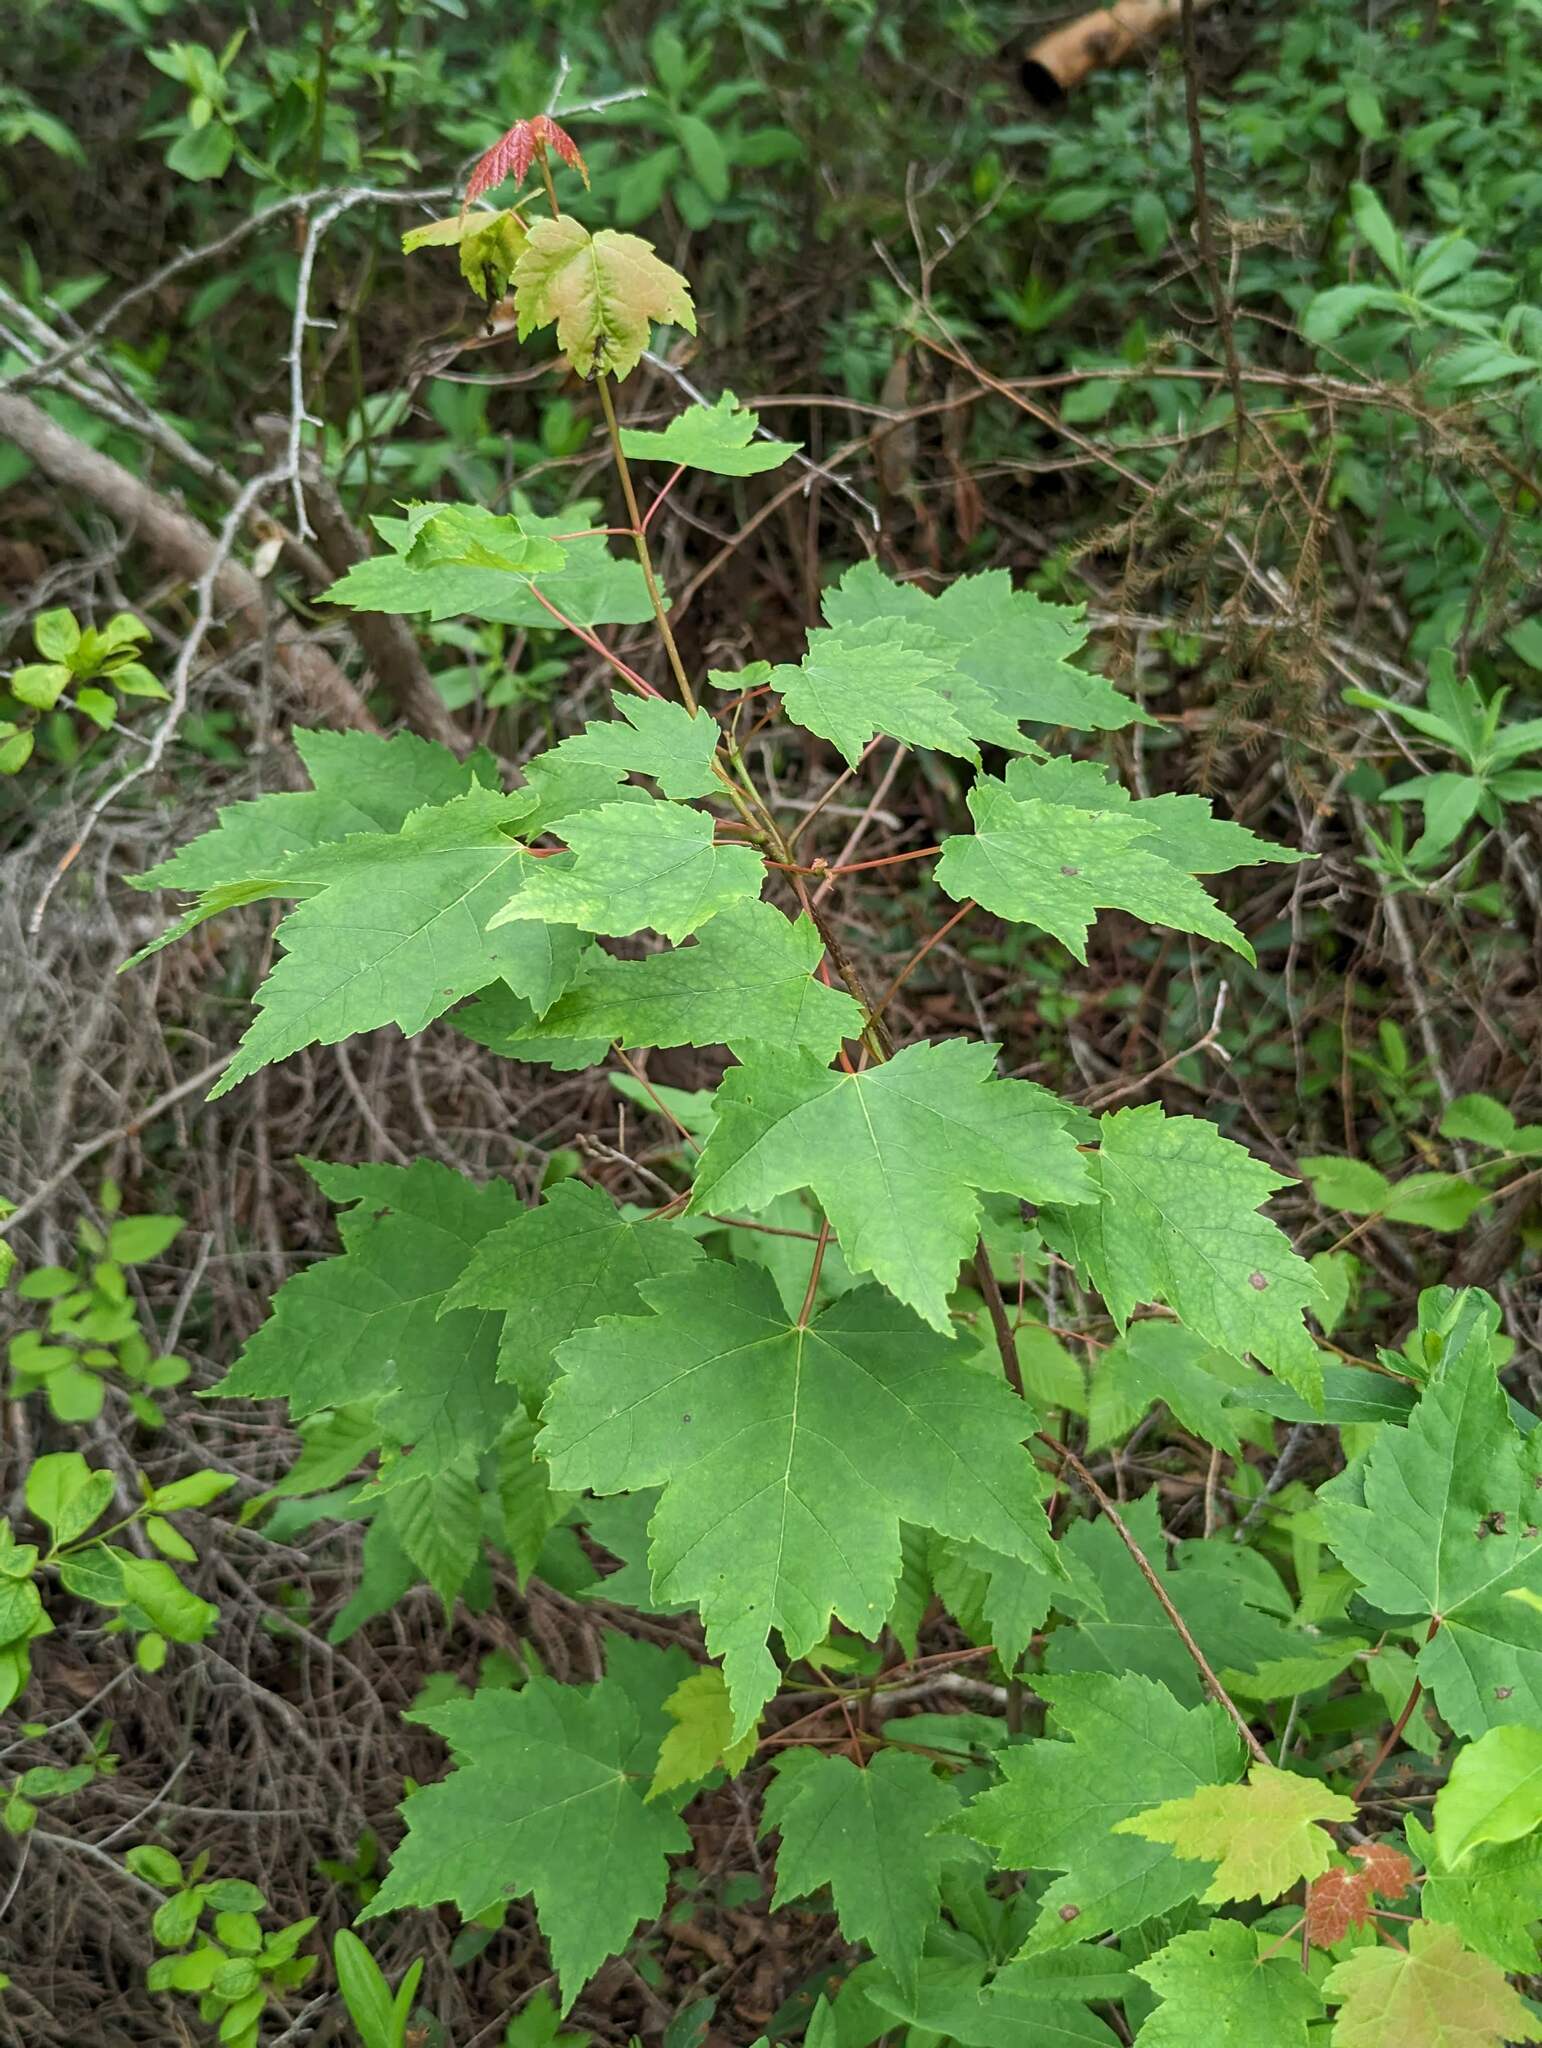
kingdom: Plantae
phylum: Tracheophyta
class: Magnoliopsida
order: Sapindales
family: Sapindaceae
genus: Acer
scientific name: Acer rubrum
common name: Red maple
